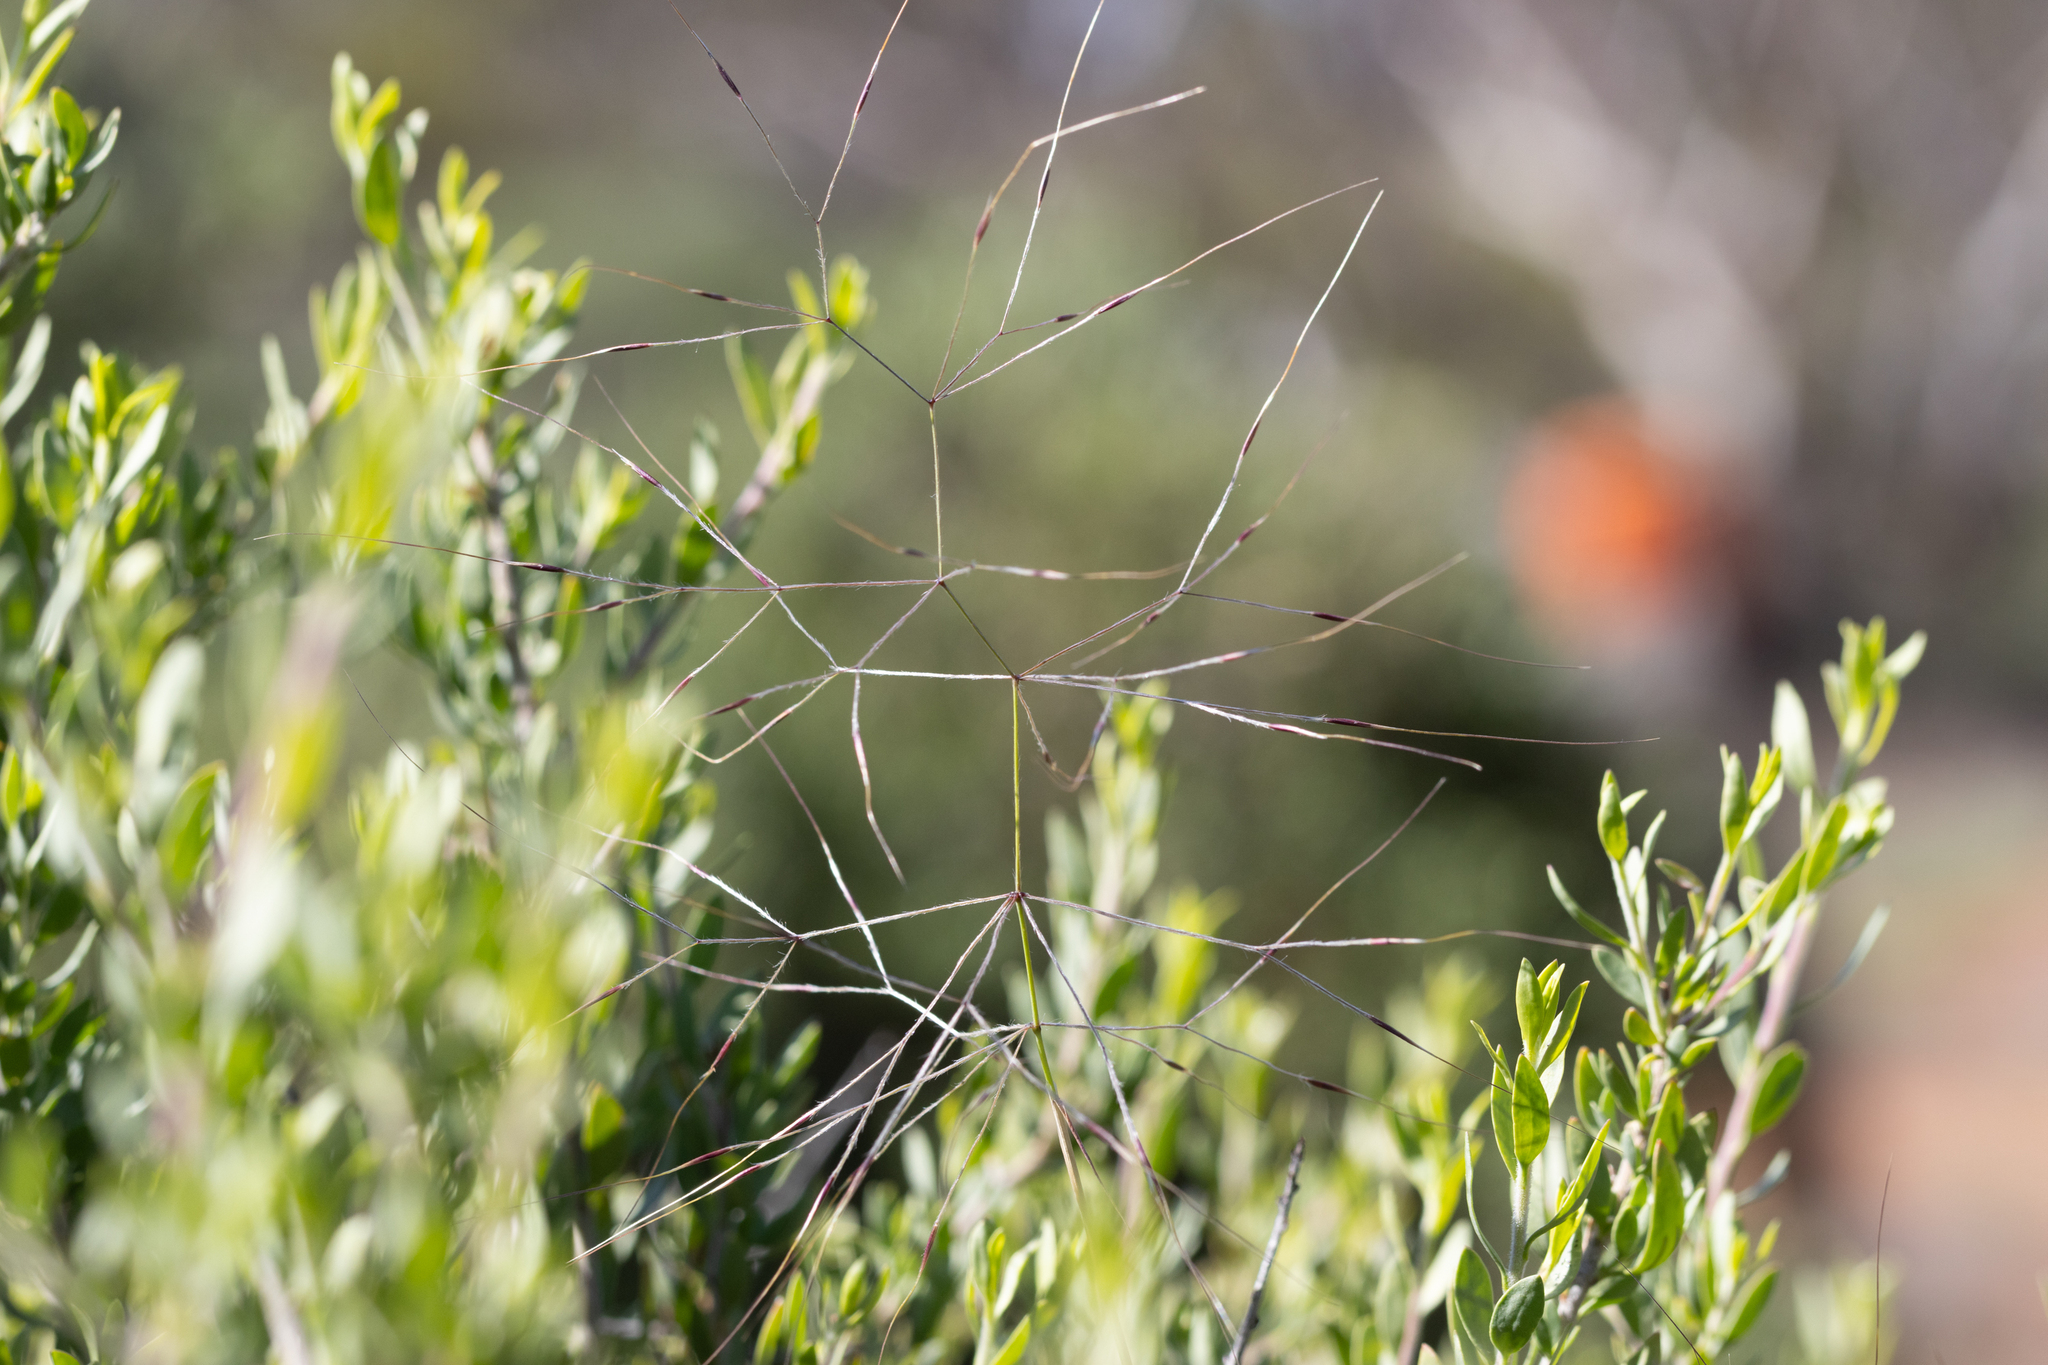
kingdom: Plantae
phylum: Tracheophyta
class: Liliopsida
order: Poales
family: Poaceae
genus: Austrostipa
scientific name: Austrostipa elegantissima
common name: Feather spear grass
